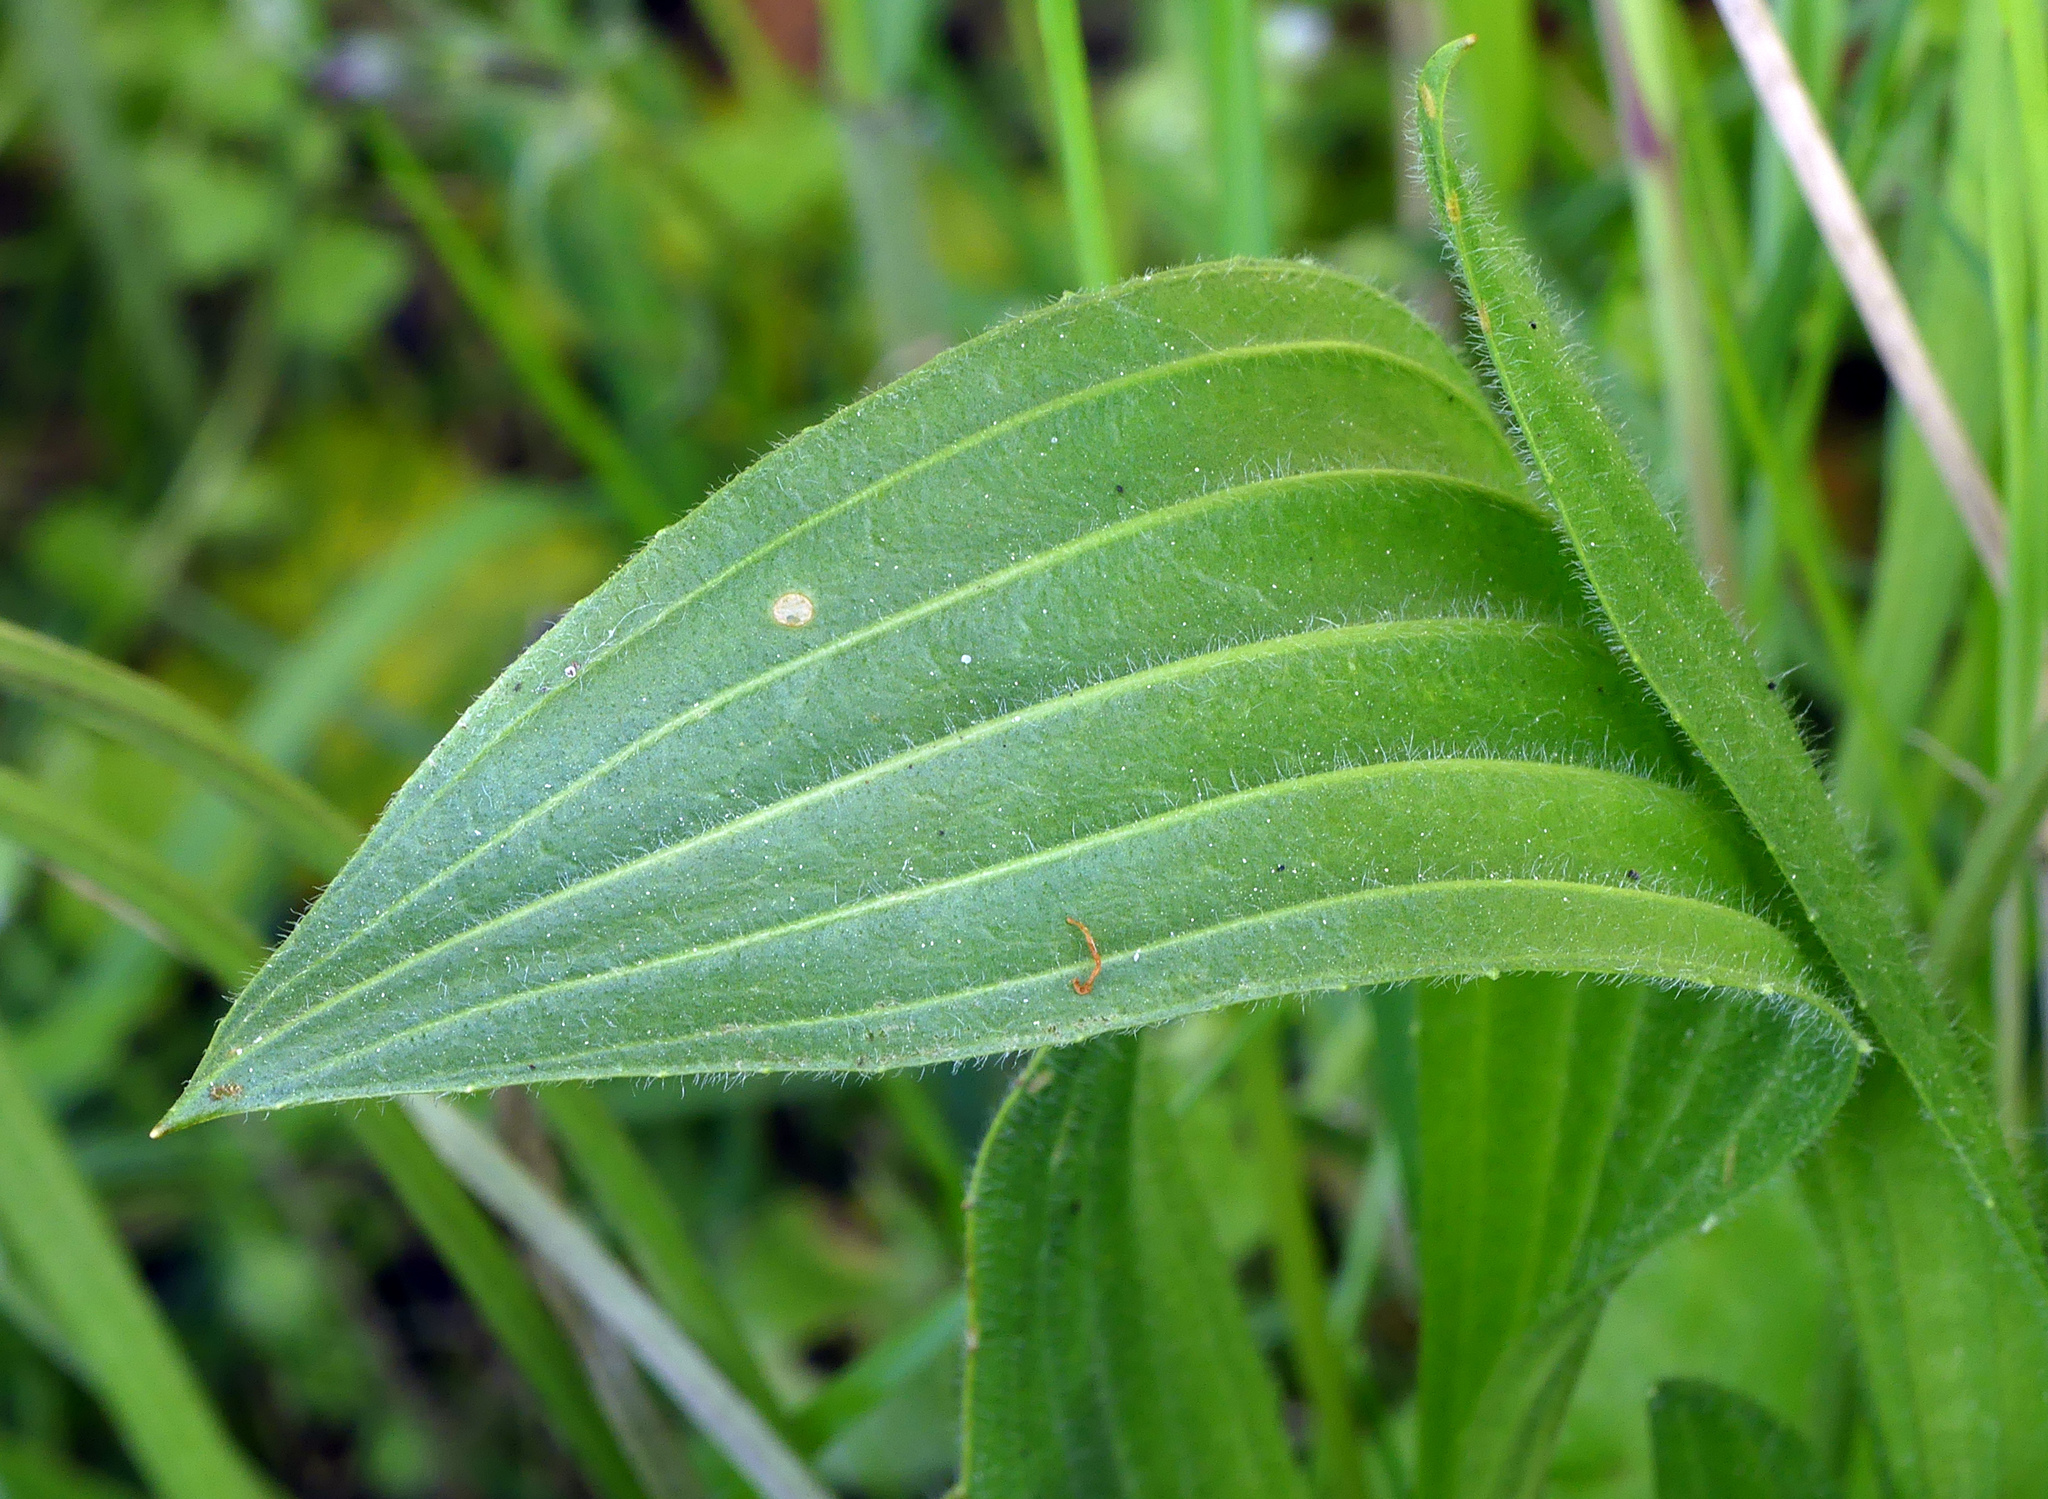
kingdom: Plantae
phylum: Tracheophyta
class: Magnoliopsida
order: Lamiales
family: Plantaginaceae
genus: Plantago
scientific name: Plantago lanceolata
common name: Ribwort plantain
